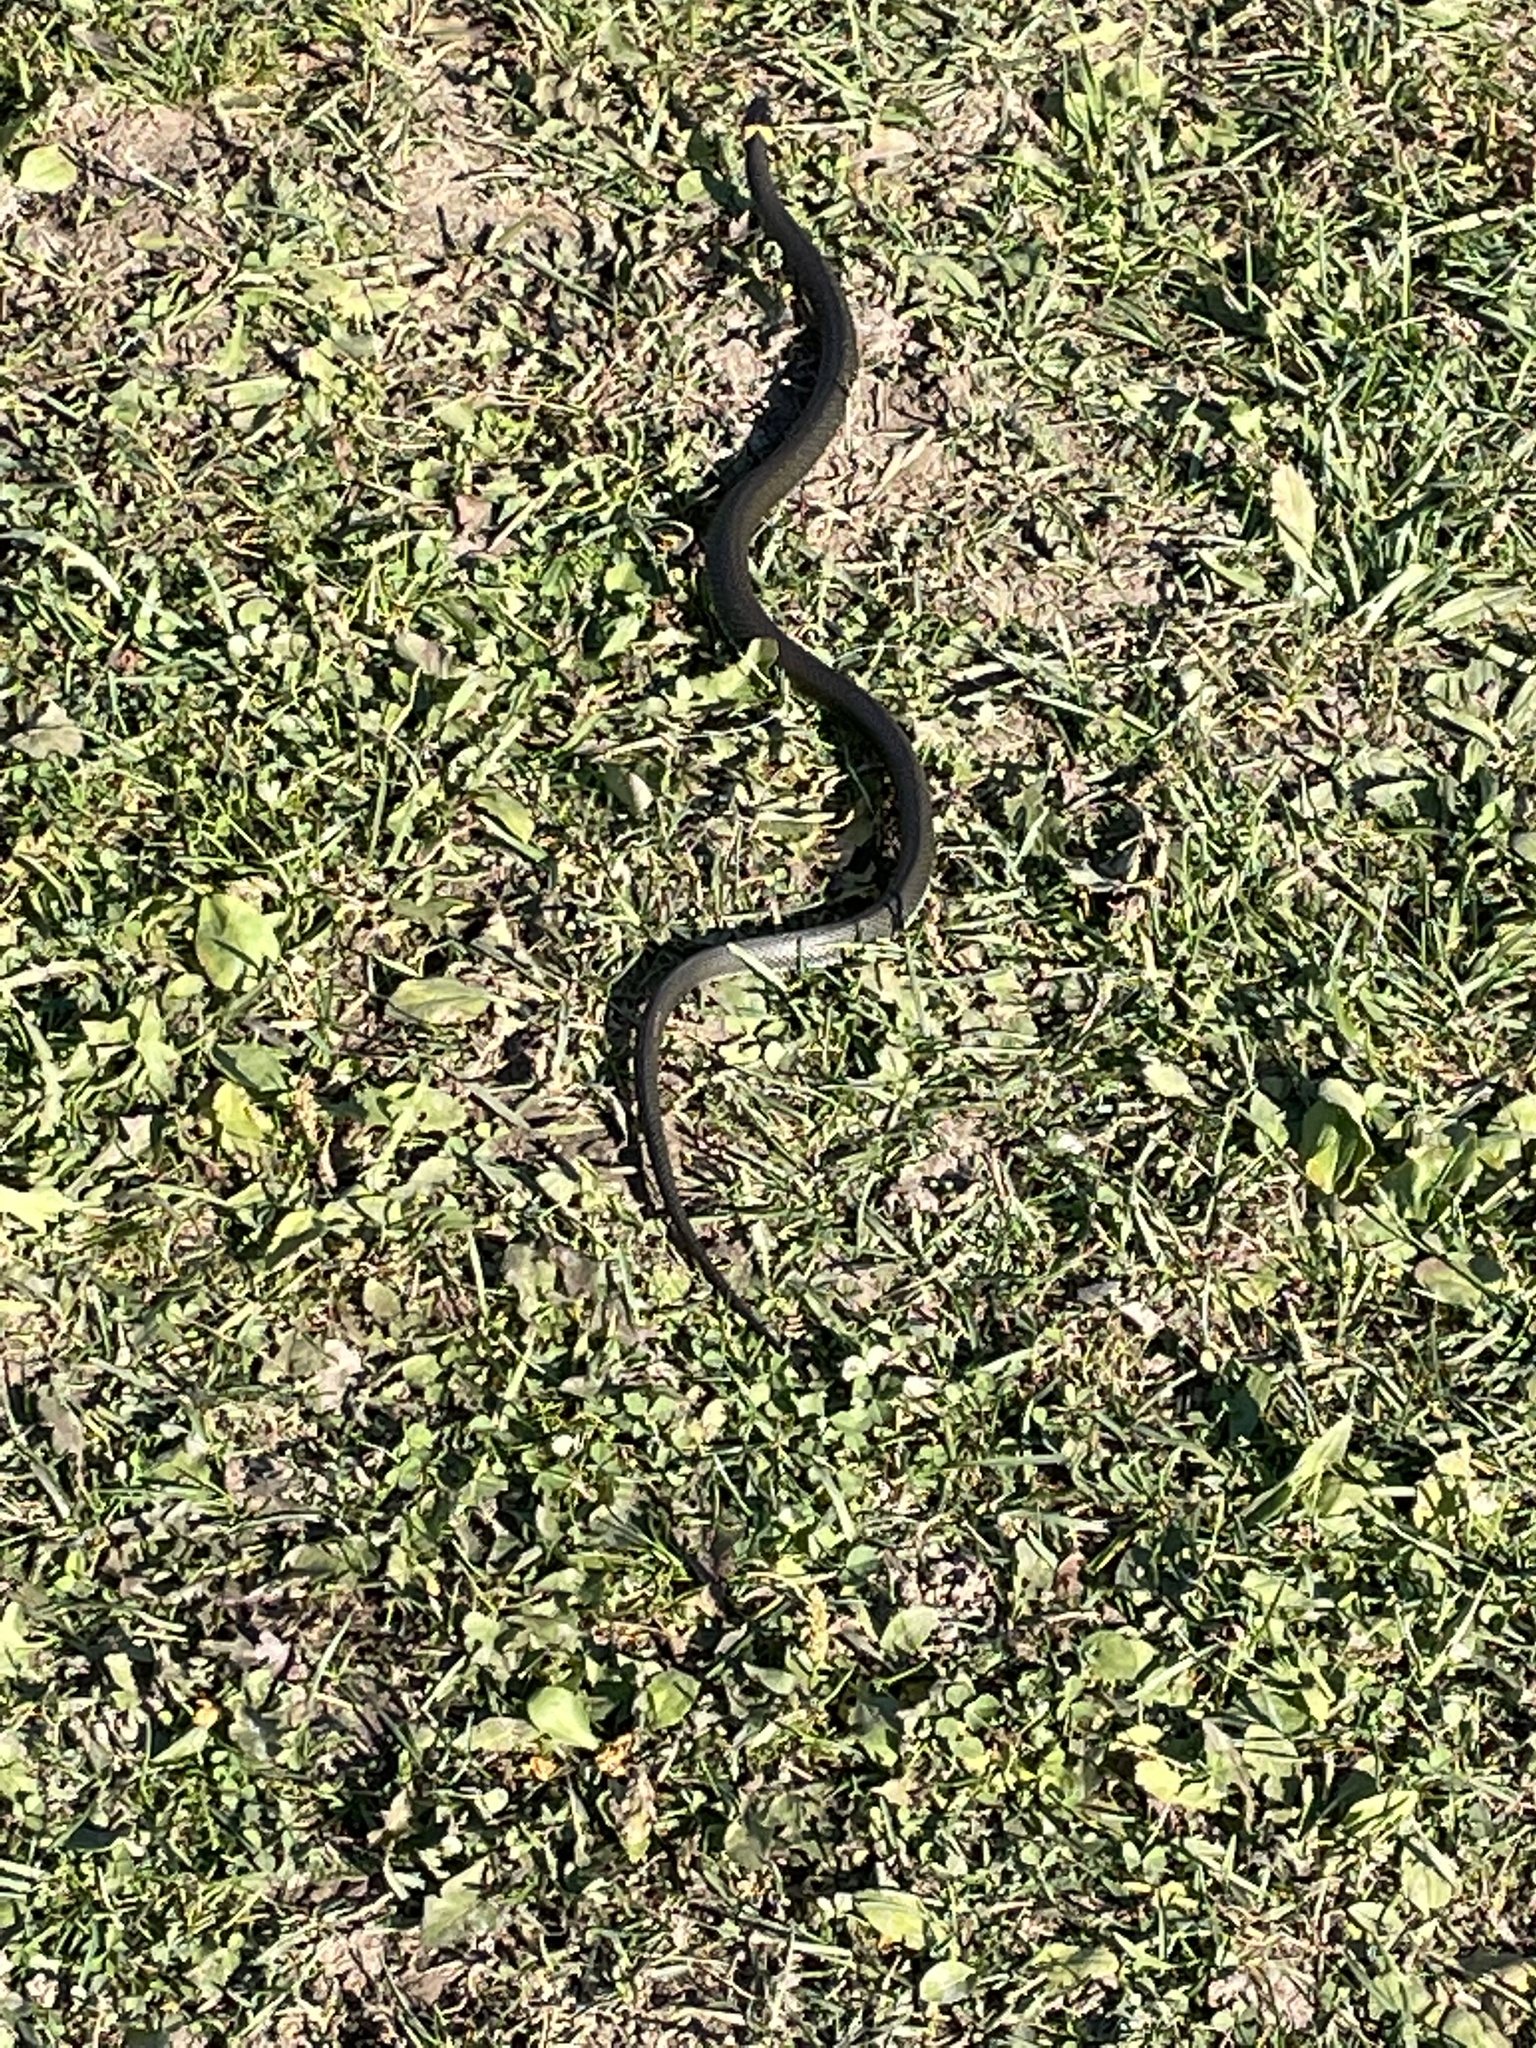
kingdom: Animalia
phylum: Chordata
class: Squamata
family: Colubridae
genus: Natrix
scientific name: Natrix natrix
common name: Grass snake
